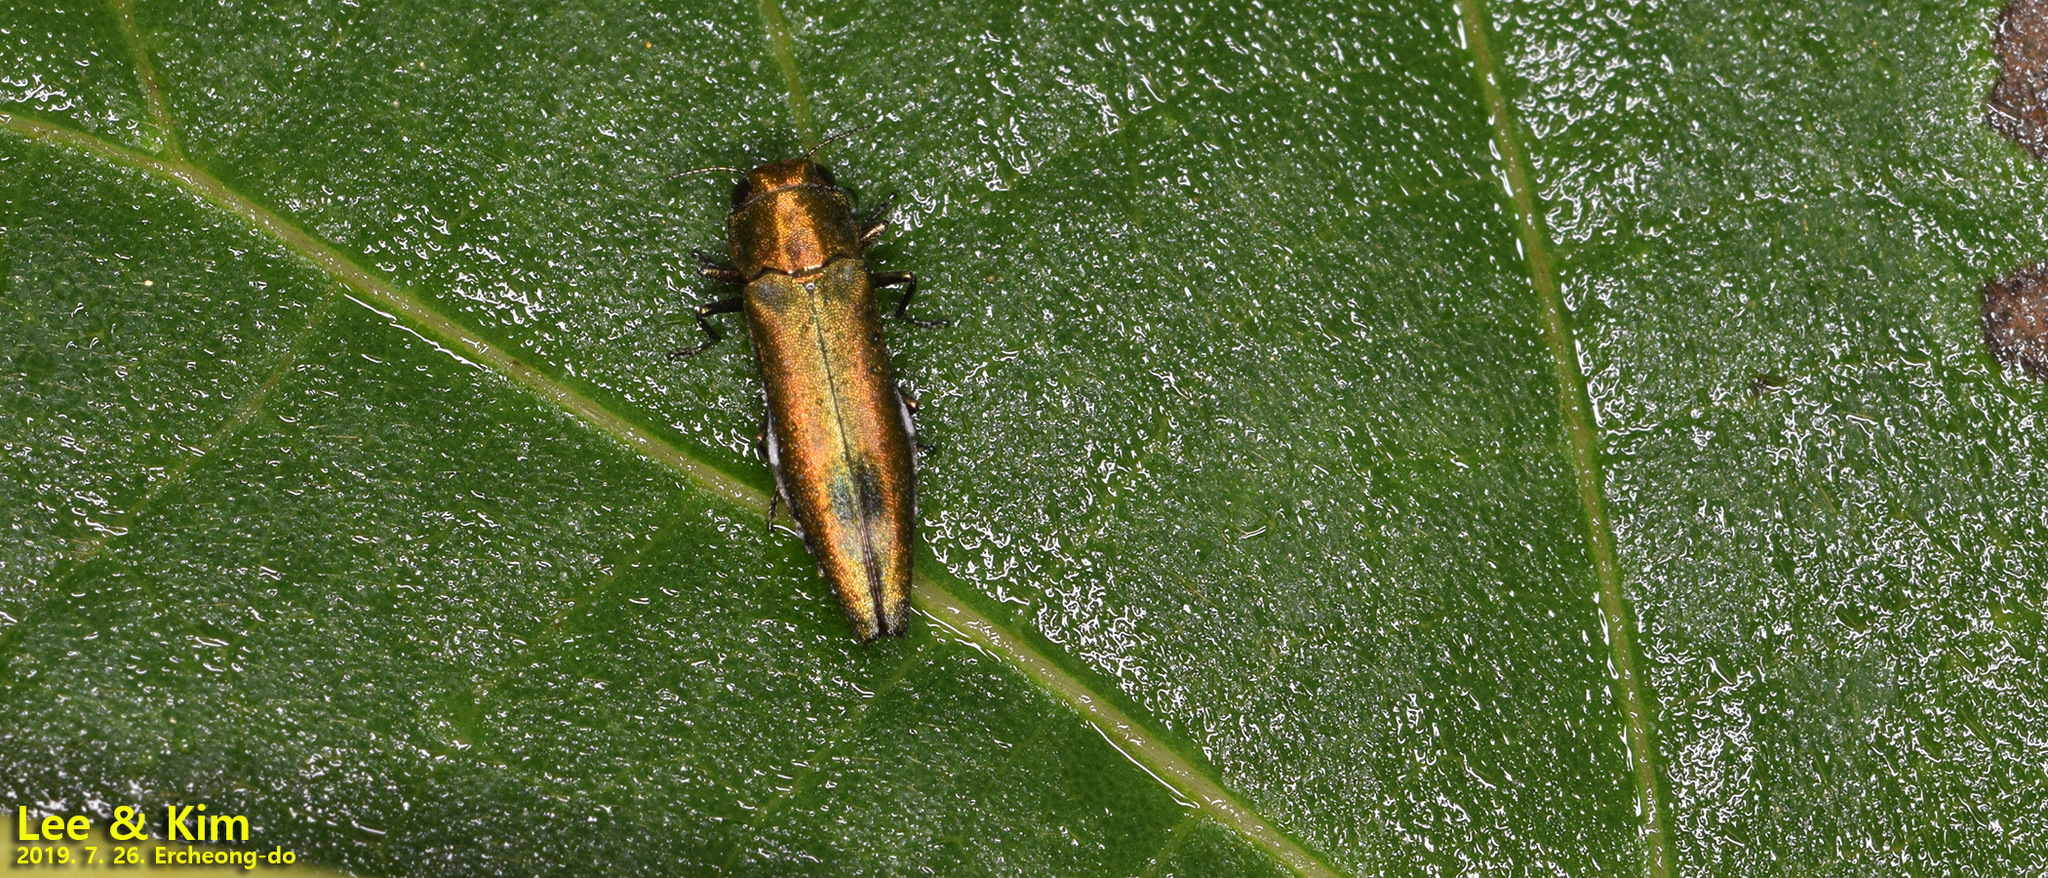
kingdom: Animalia
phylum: Arthropoda
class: Insecta
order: Coleoptera
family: Buprestidae
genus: Agrilus
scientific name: Agrilus chujoi
